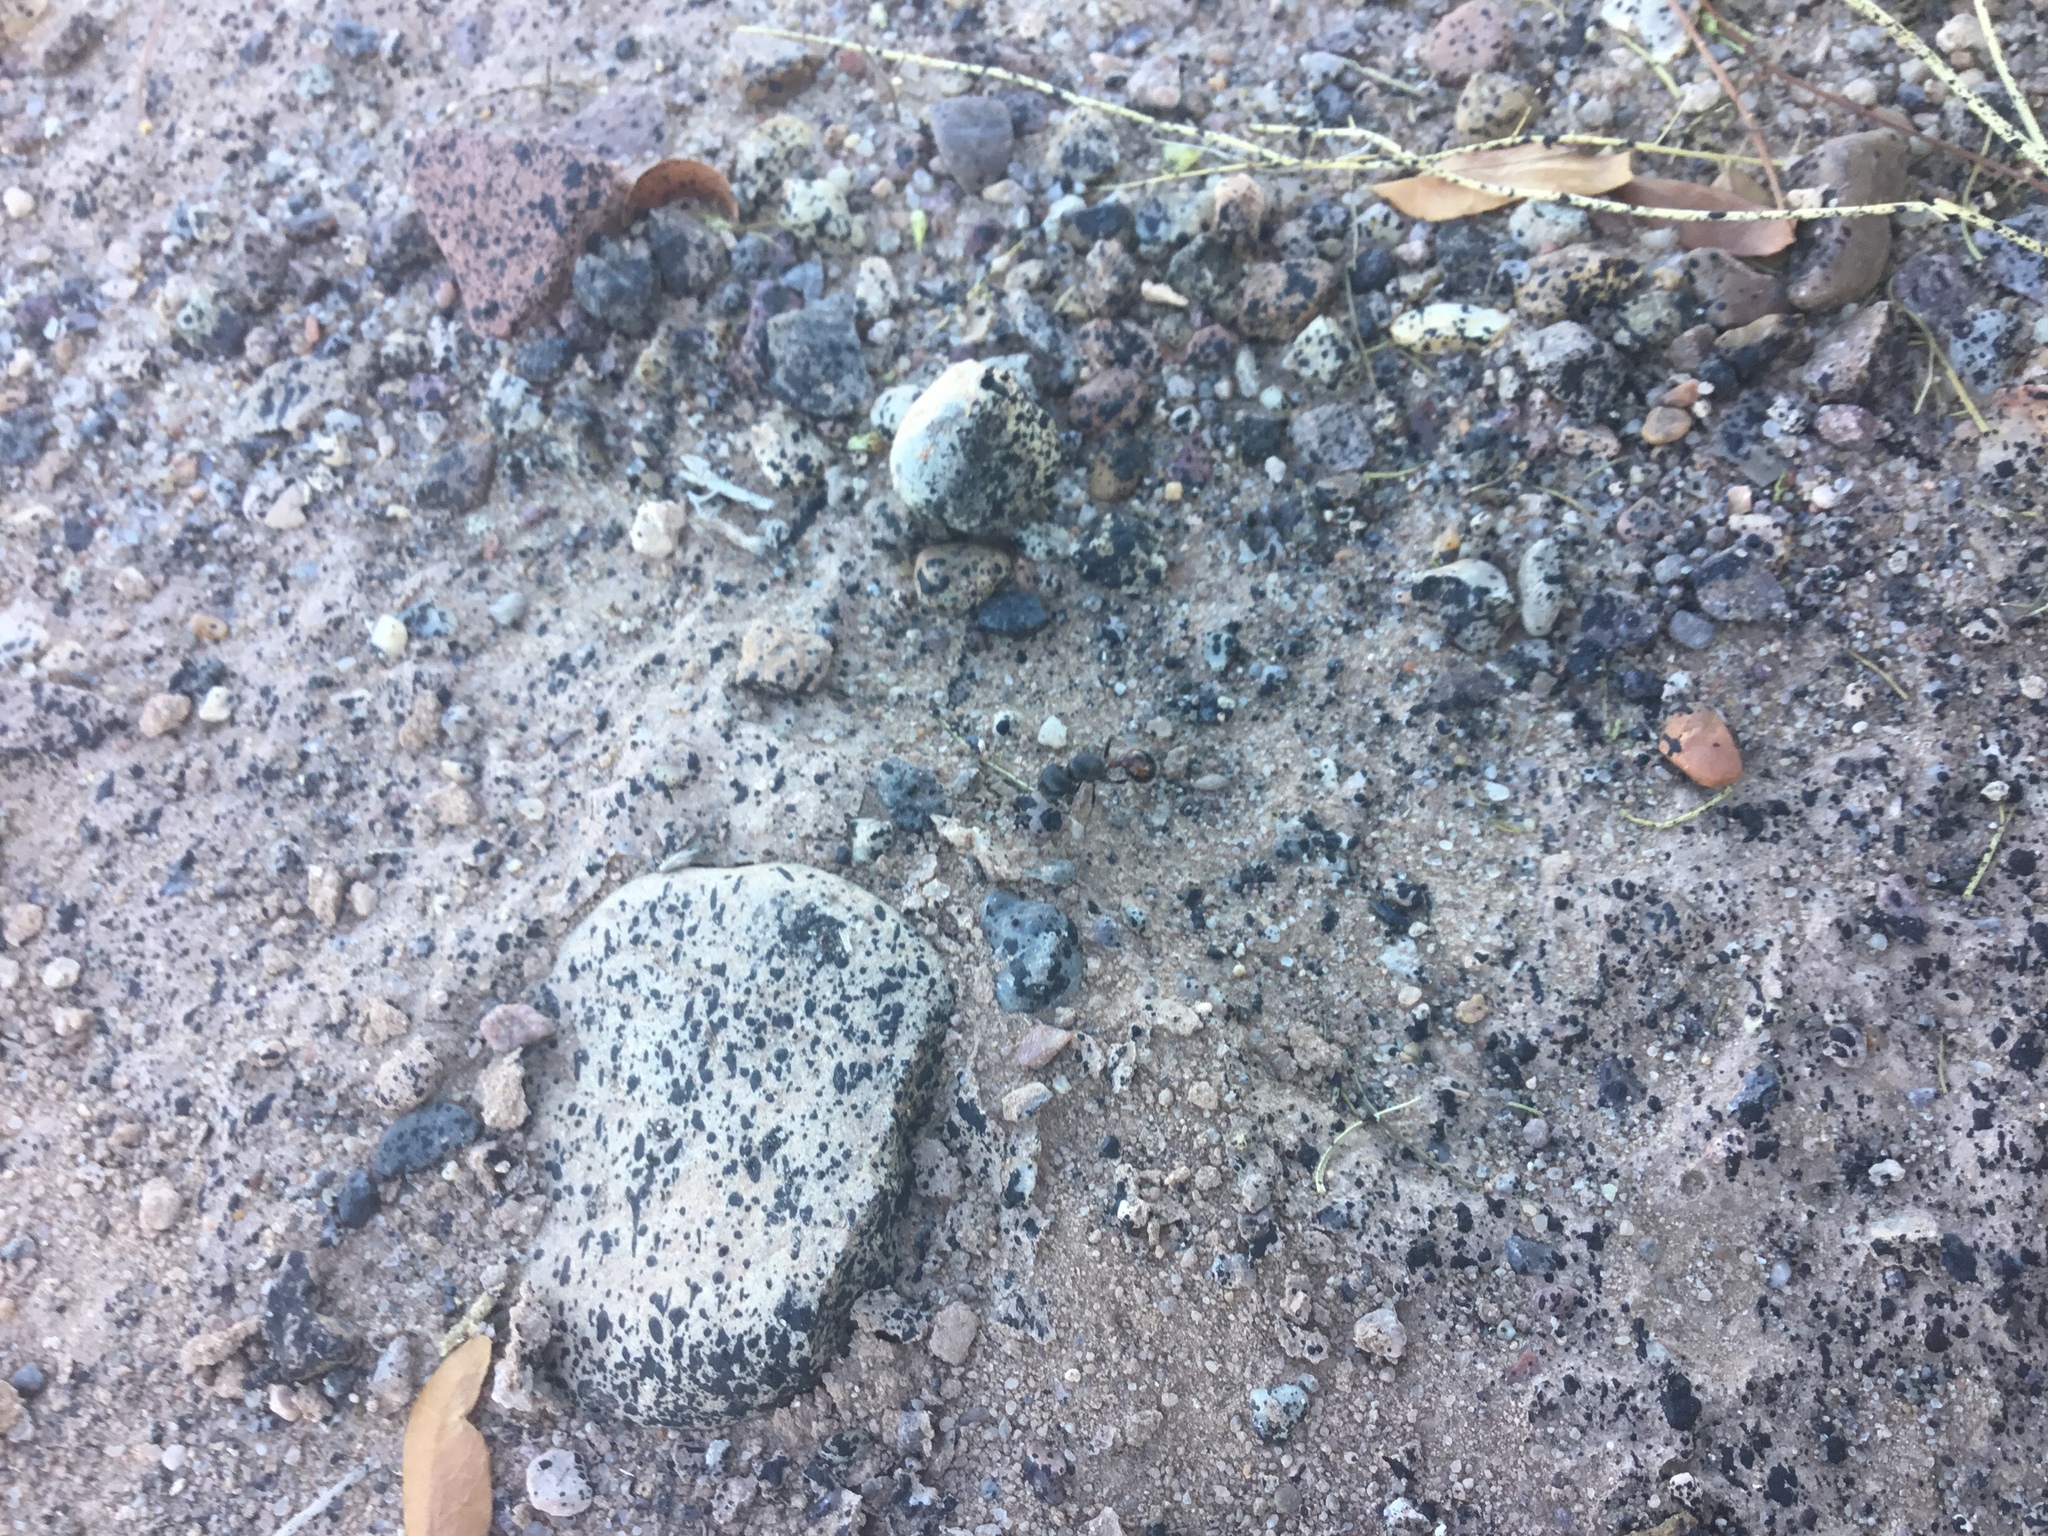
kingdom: Animalia
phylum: Arthropoda
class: Insecta
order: Hymenoptera
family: Formicidae
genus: Pogonomyrmex
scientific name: Pogonomyrmex rugosus
